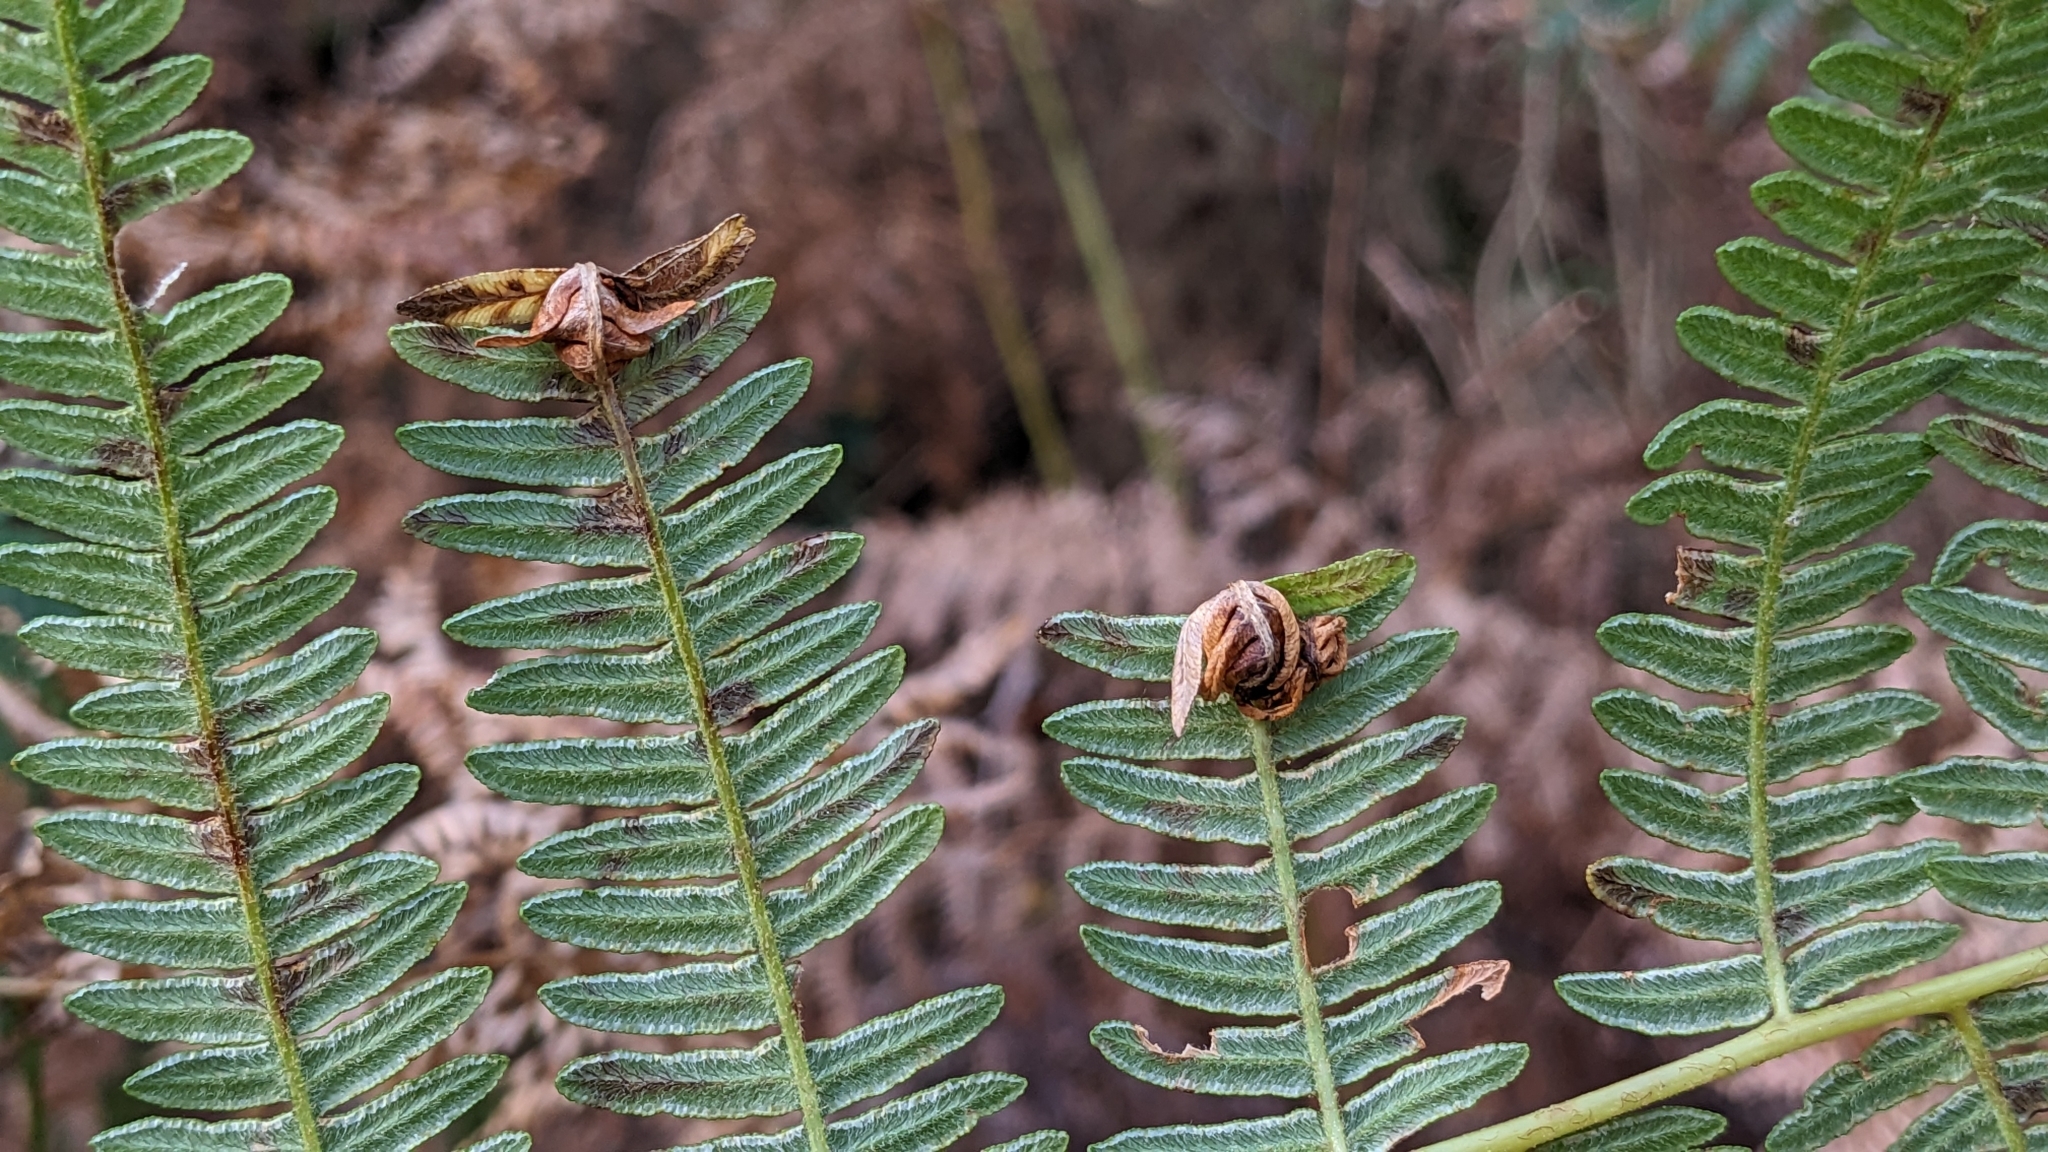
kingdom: Animalia
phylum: Arthropoda
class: Insecta
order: Diptera
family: Anthomyiidae
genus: Chirosia
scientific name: Chirosia grossicauda
